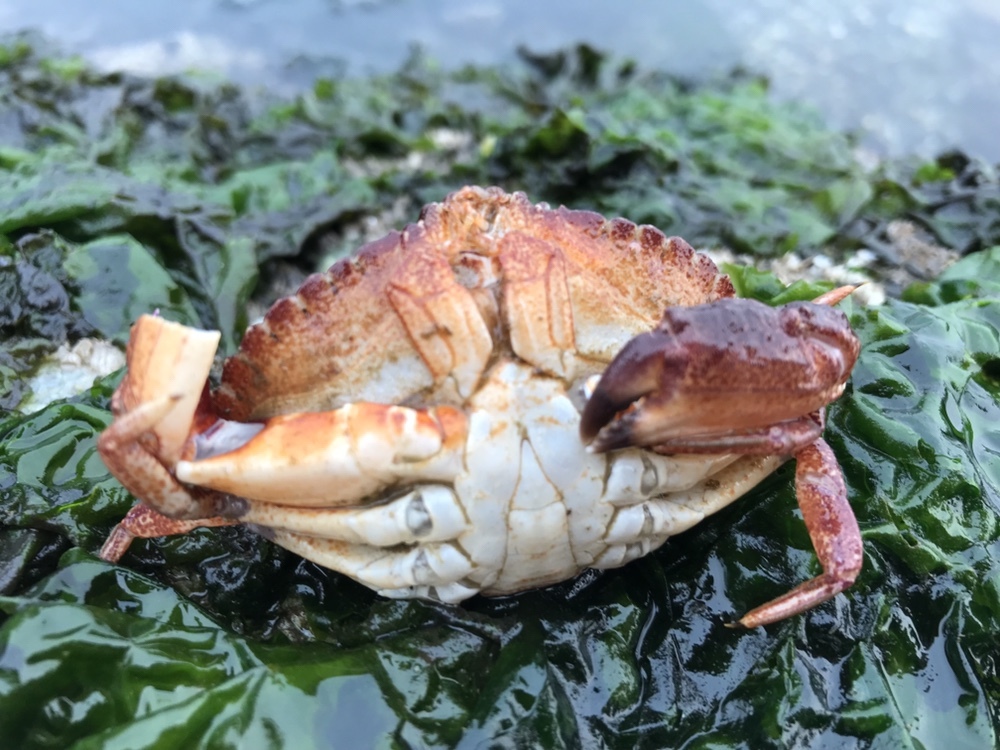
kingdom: Animalia
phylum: Arthropoda
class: Malacostraca
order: Decapoda
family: Cancridae
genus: Cancer
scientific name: Cancer productus
